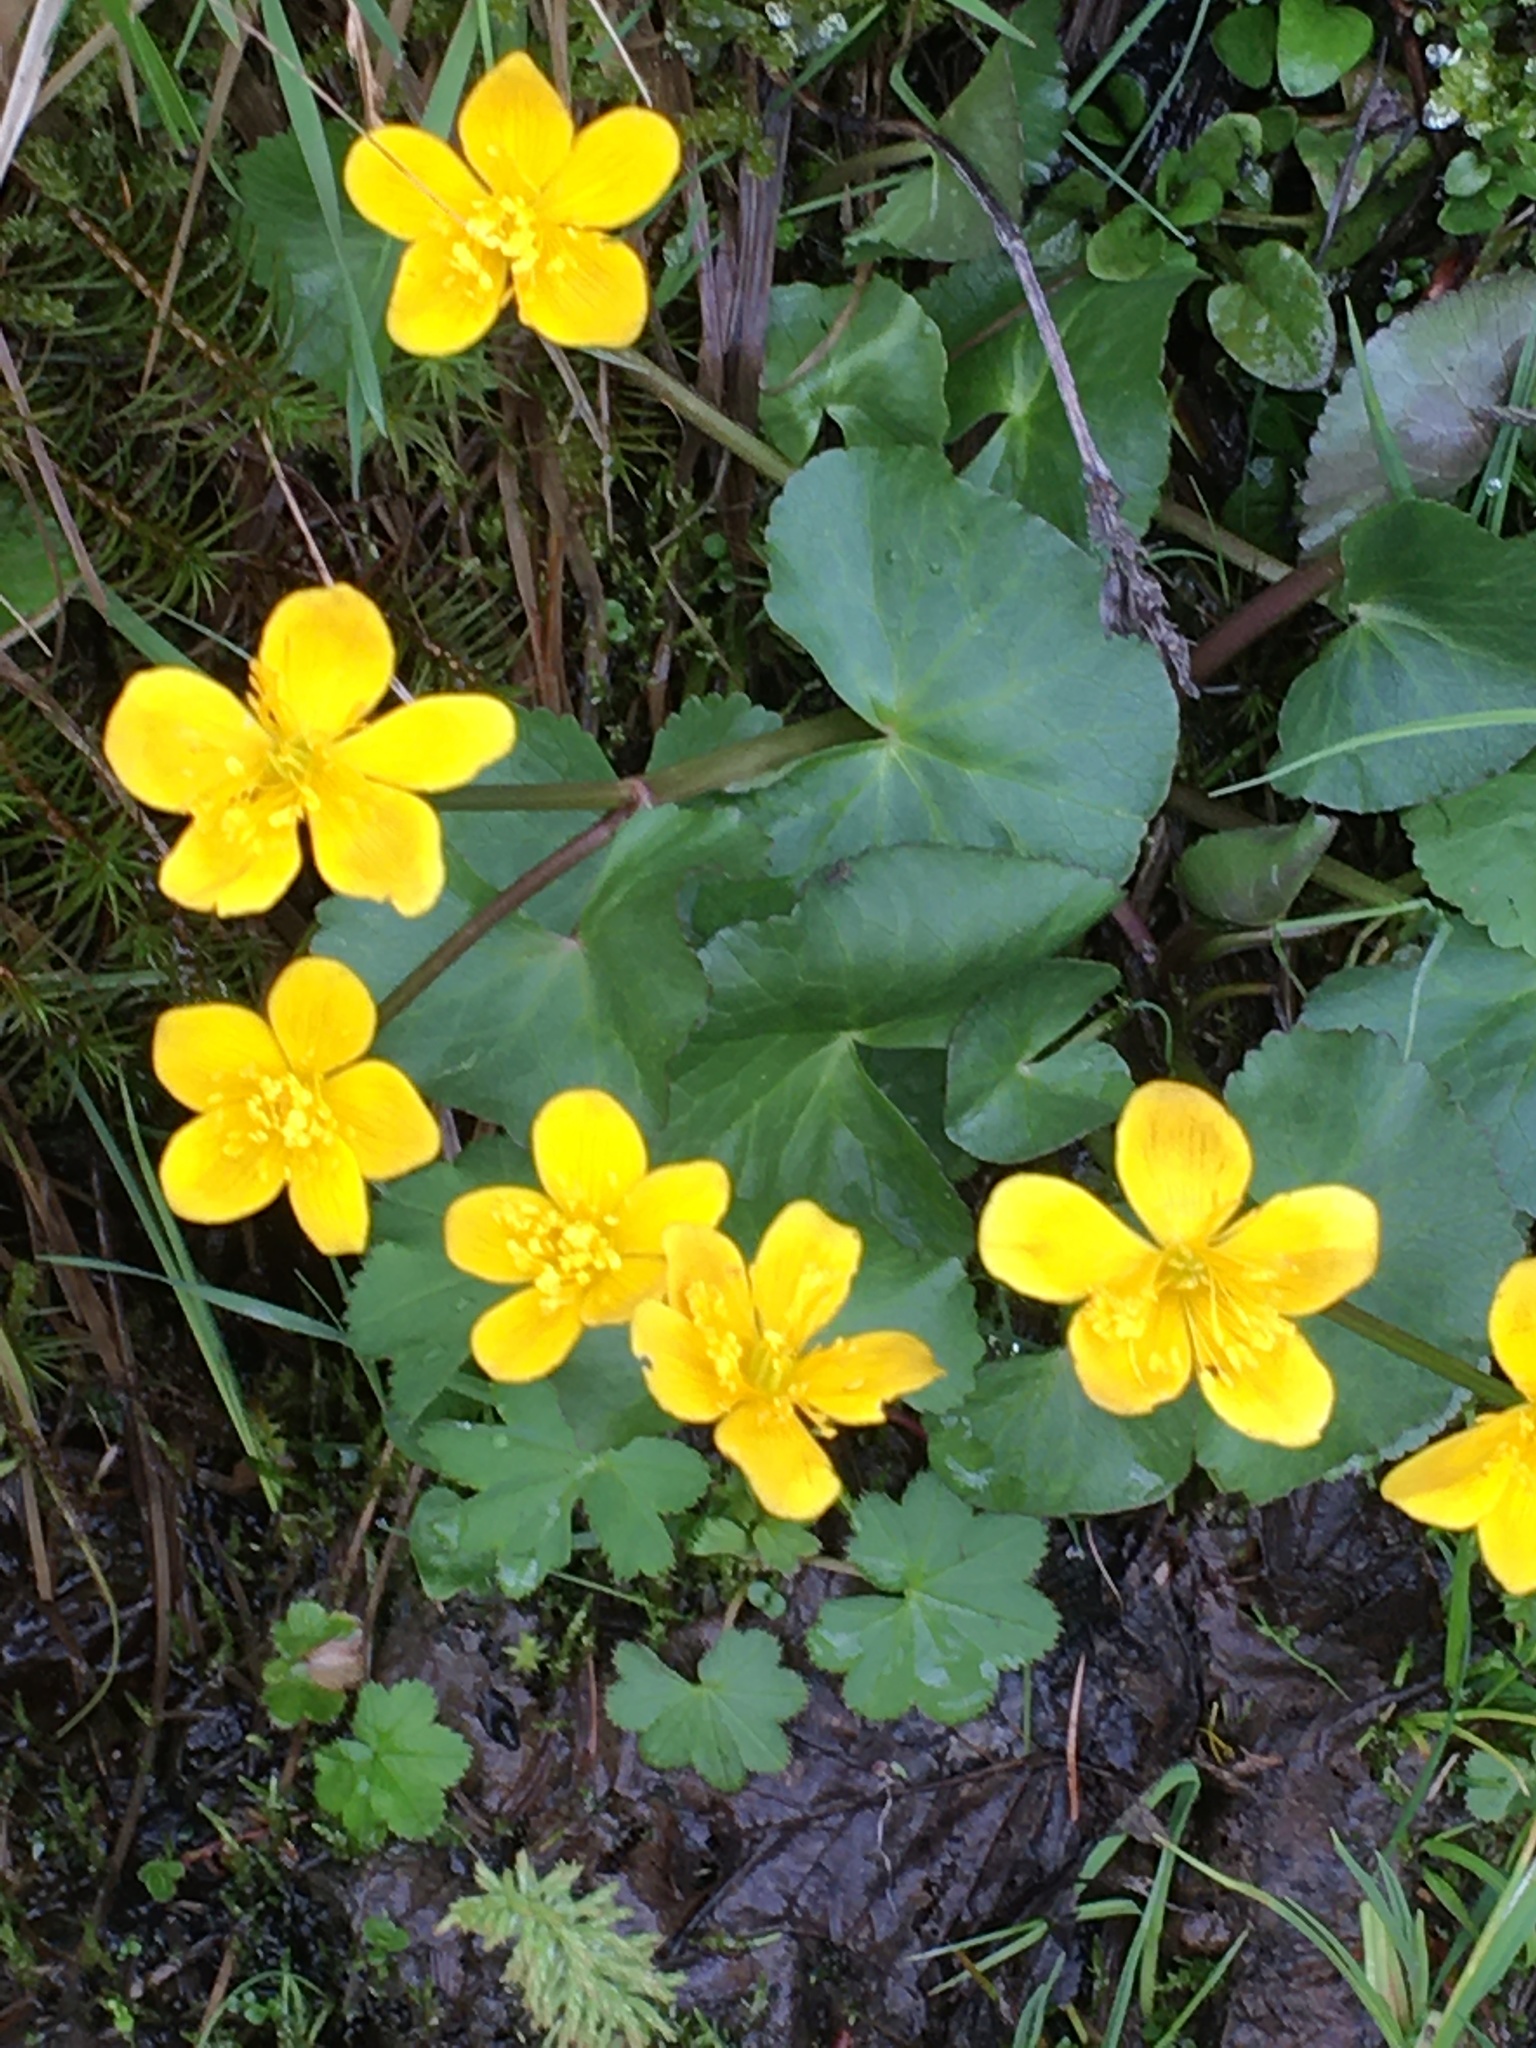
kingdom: Plantae
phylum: Tracheophyta
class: Magnoliopsida
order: Ranunculales
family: Ranunculaceae
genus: Caltha
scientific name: Caltha palustris
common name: Marsh marigold
